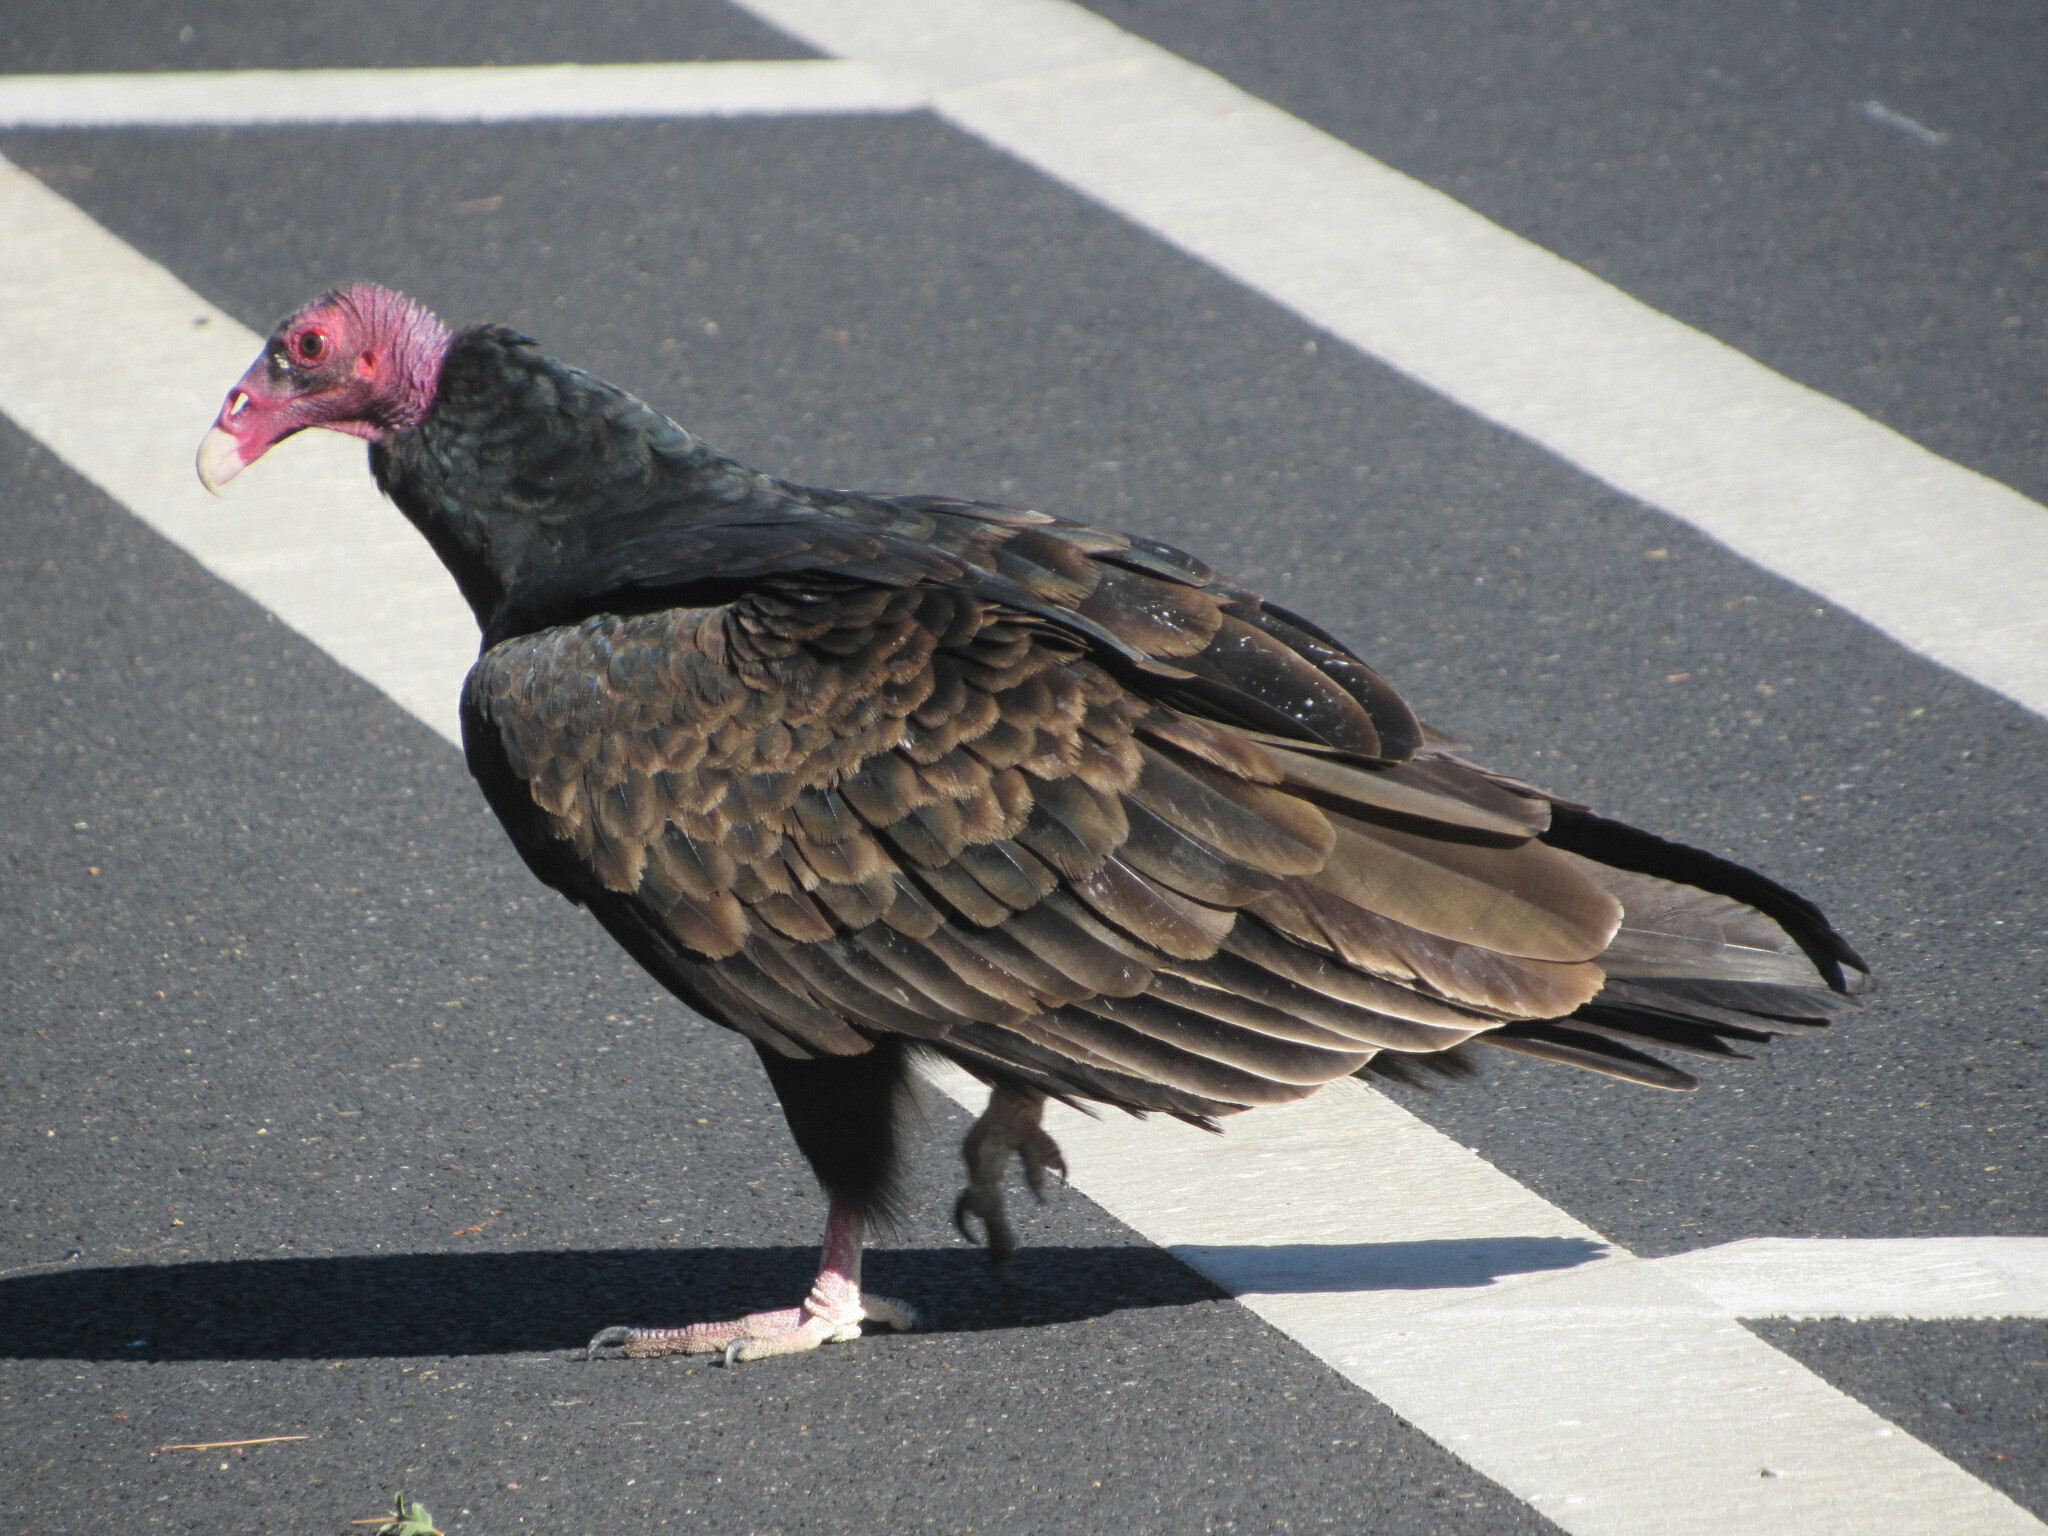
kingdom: Animalia
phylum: Chordata
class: Aves
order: Accipitriformes
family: Cathartidae
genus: Cathartes
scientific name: Cathartes aura
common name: Turkey vulture
